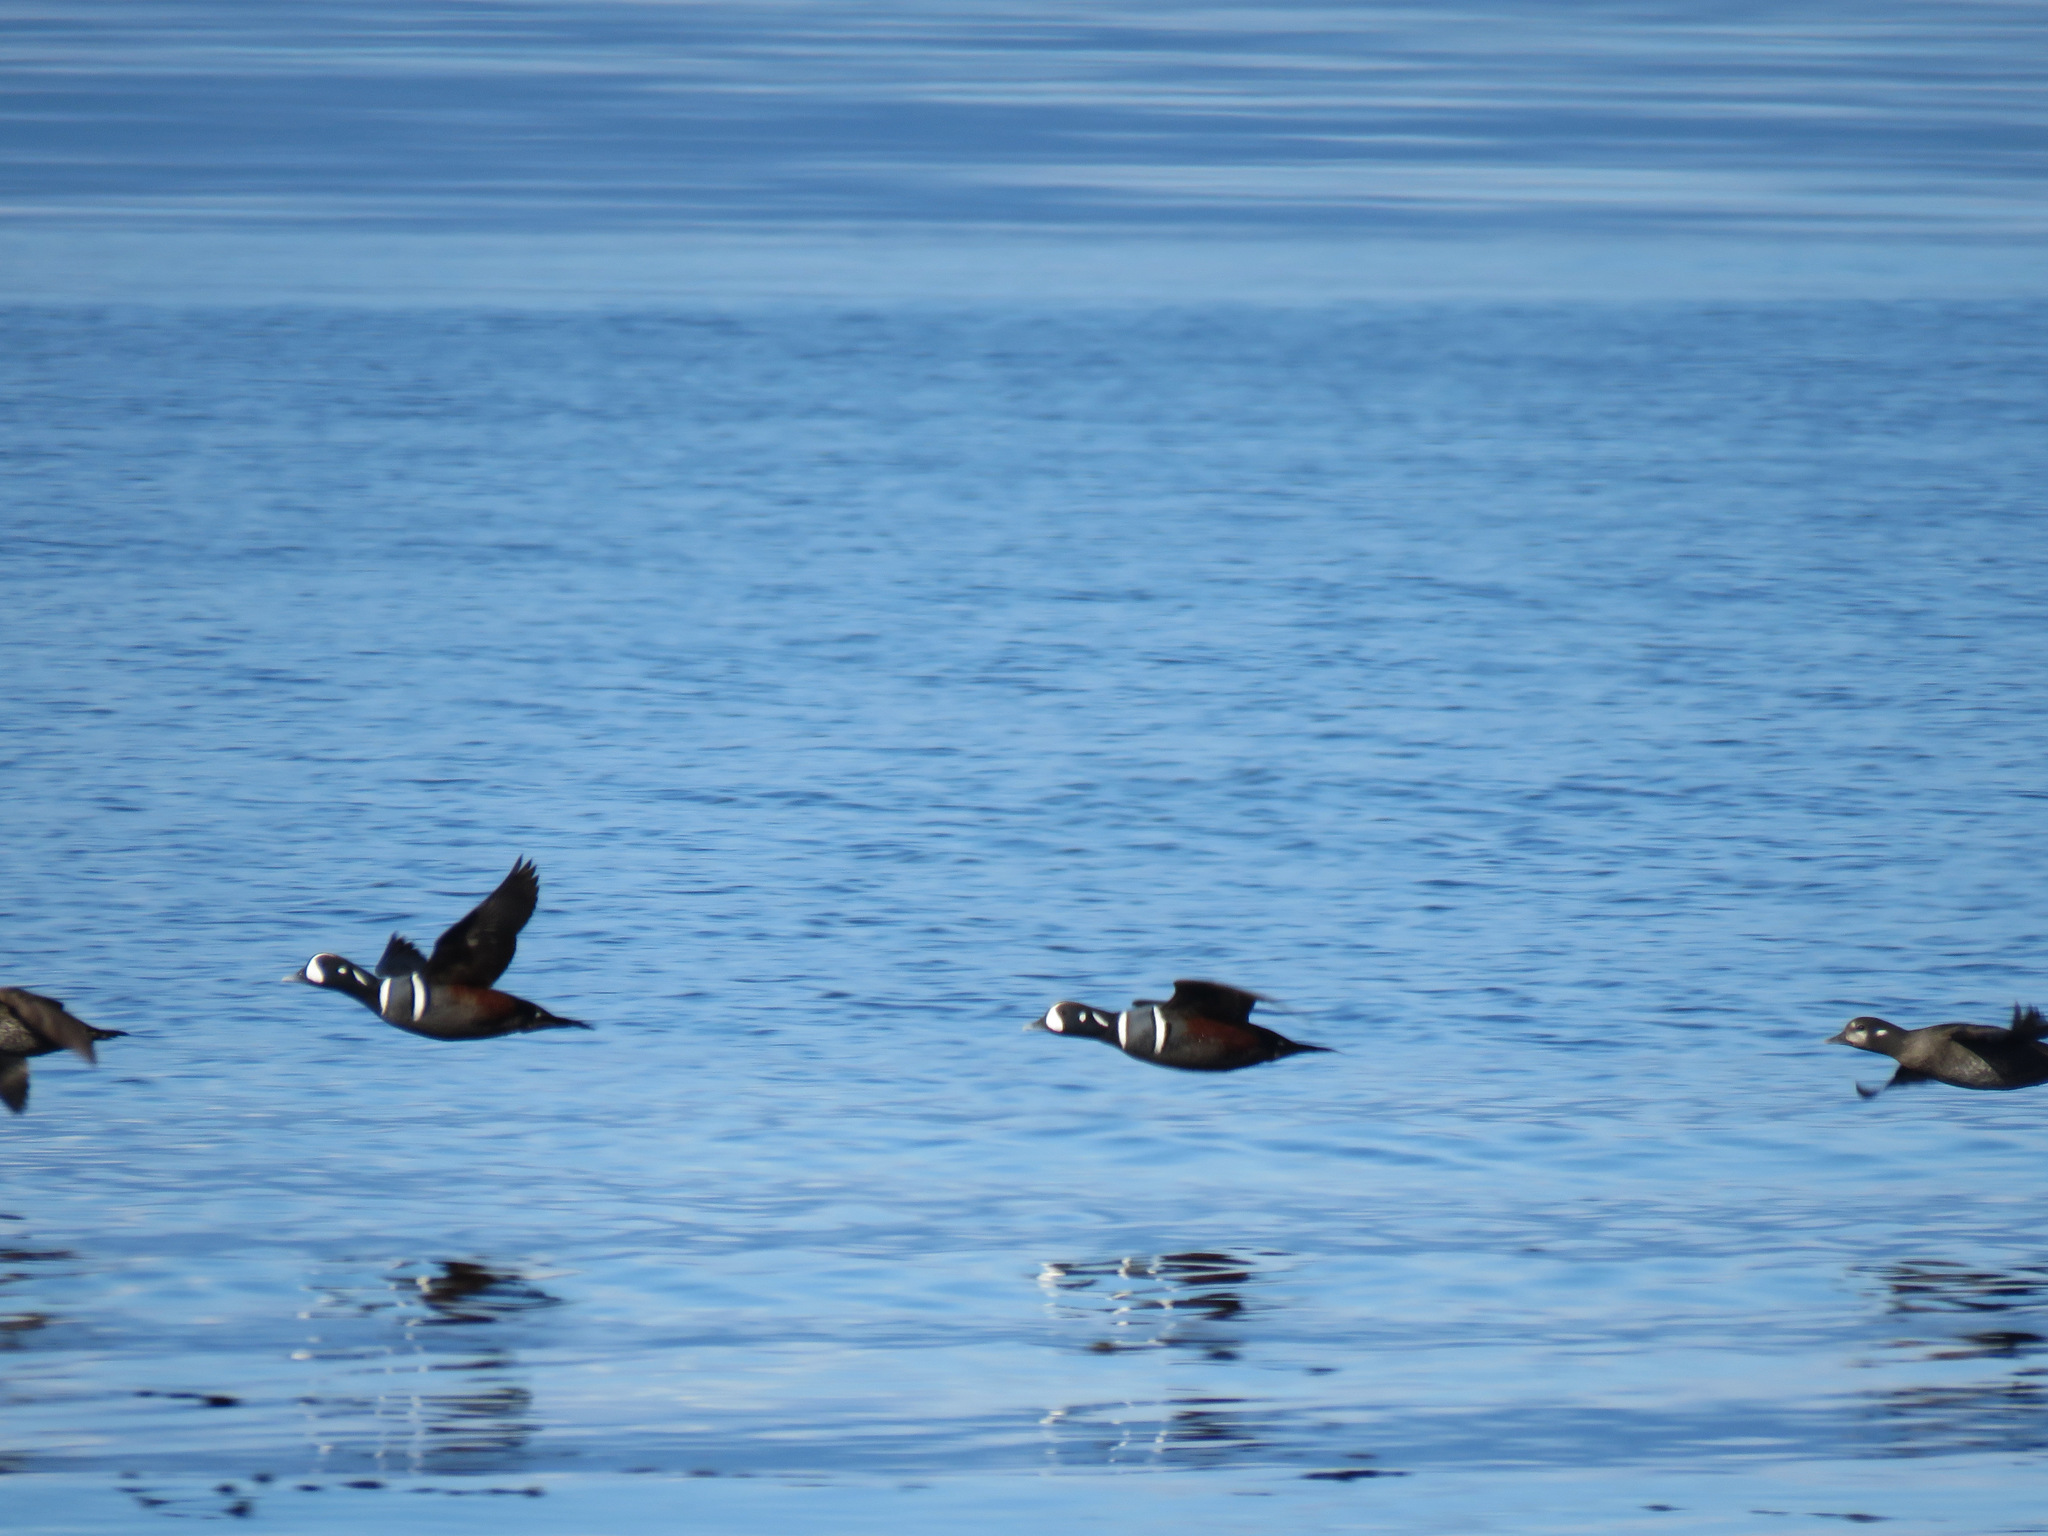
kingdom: Animalia
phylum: Chordata
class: Aves
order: Anseriformes
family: Anatidae
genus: Histrionicus
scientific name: Histrionicus histrionicus
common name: Harlequin duck
